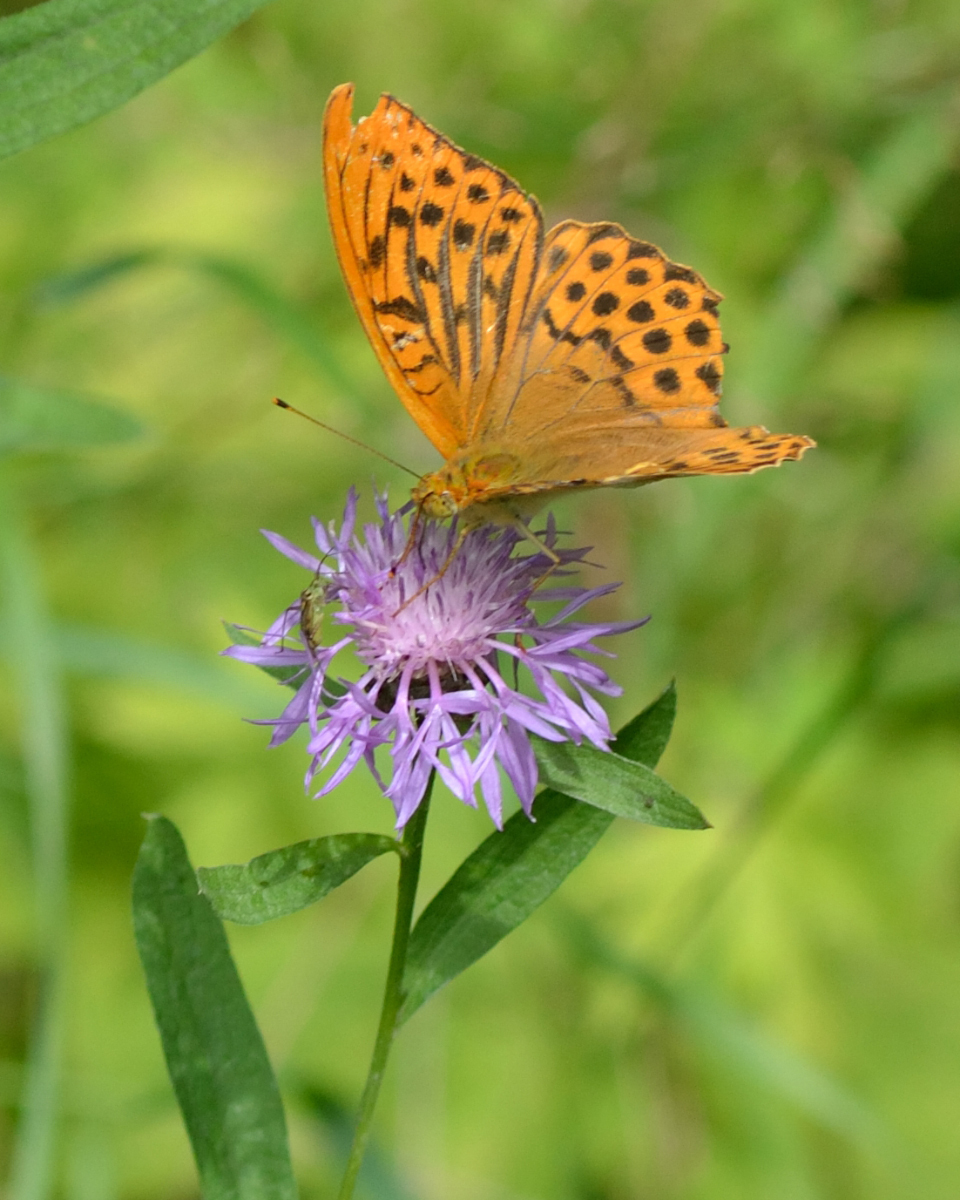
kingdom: Animalia
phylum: Arthropoda
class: Insecta
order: Lepidoptera
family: Nymphalidae
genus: Argynnis
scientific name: Argynnis paphia
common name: Silver-washed fritillary
